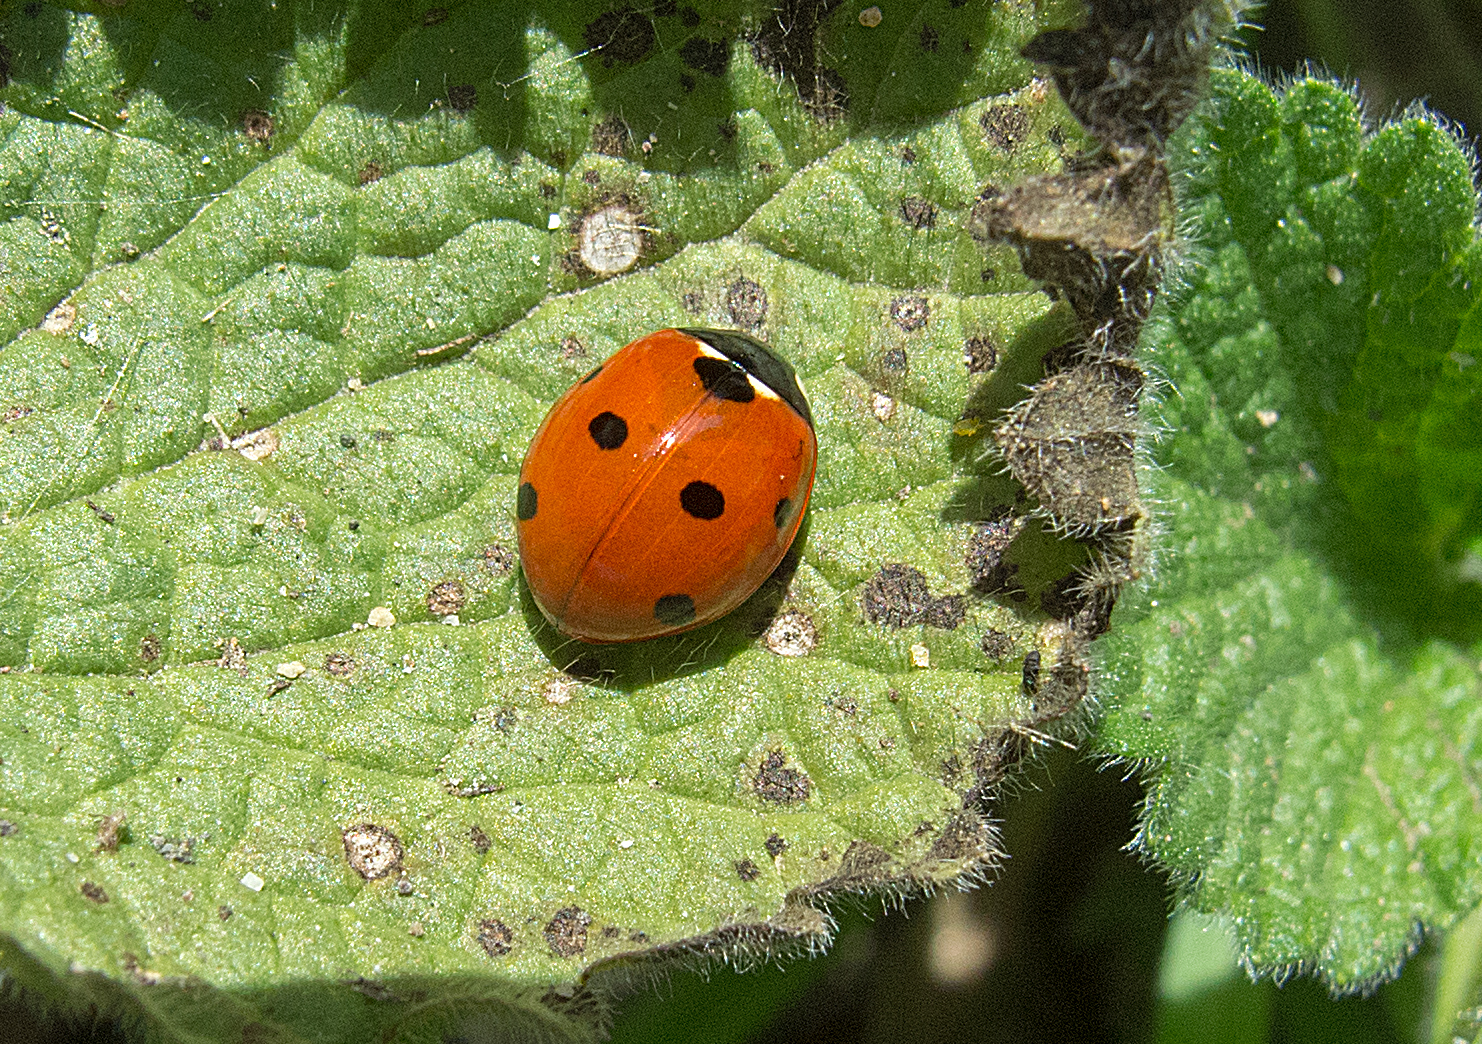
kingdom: Animalia
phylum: Arthropoda
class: Insecta
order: Coleoptera
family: Coccinellidae
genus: Coccinella
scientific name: Coccinella septempunctata
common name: Sevenspotted lady beetle
